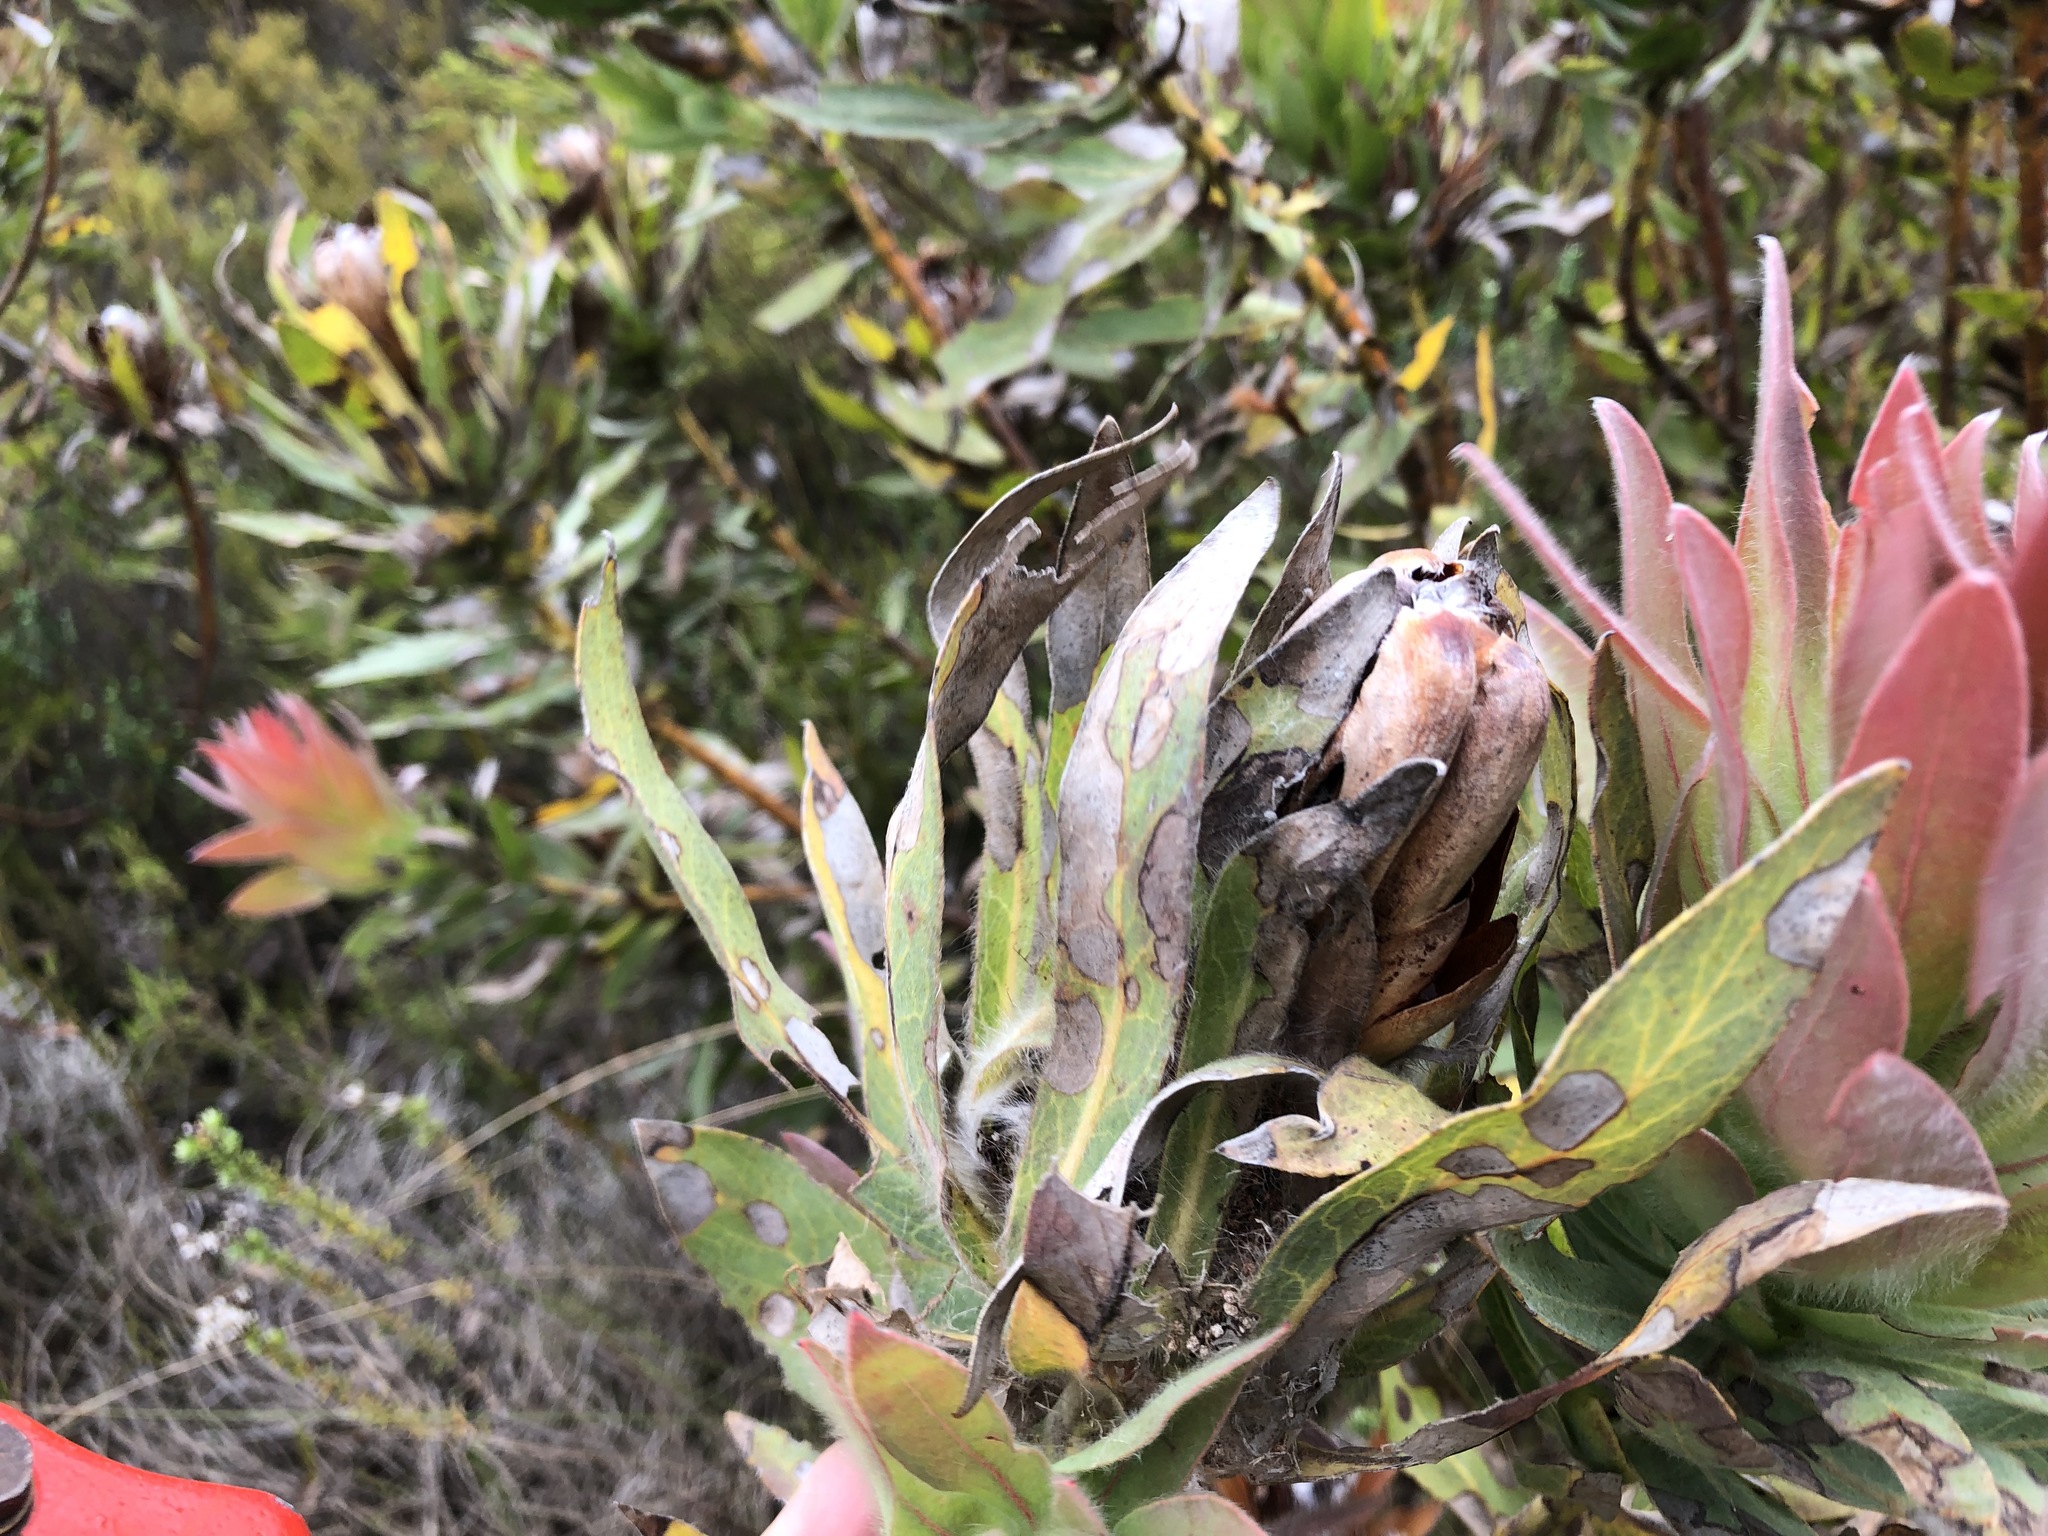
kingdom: Plantae
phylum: Tracheophyta
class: Magnoliopsida
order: Proteales
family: Proteaceae
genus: Protea
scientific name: Protea coronata
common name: Green sugarbush
